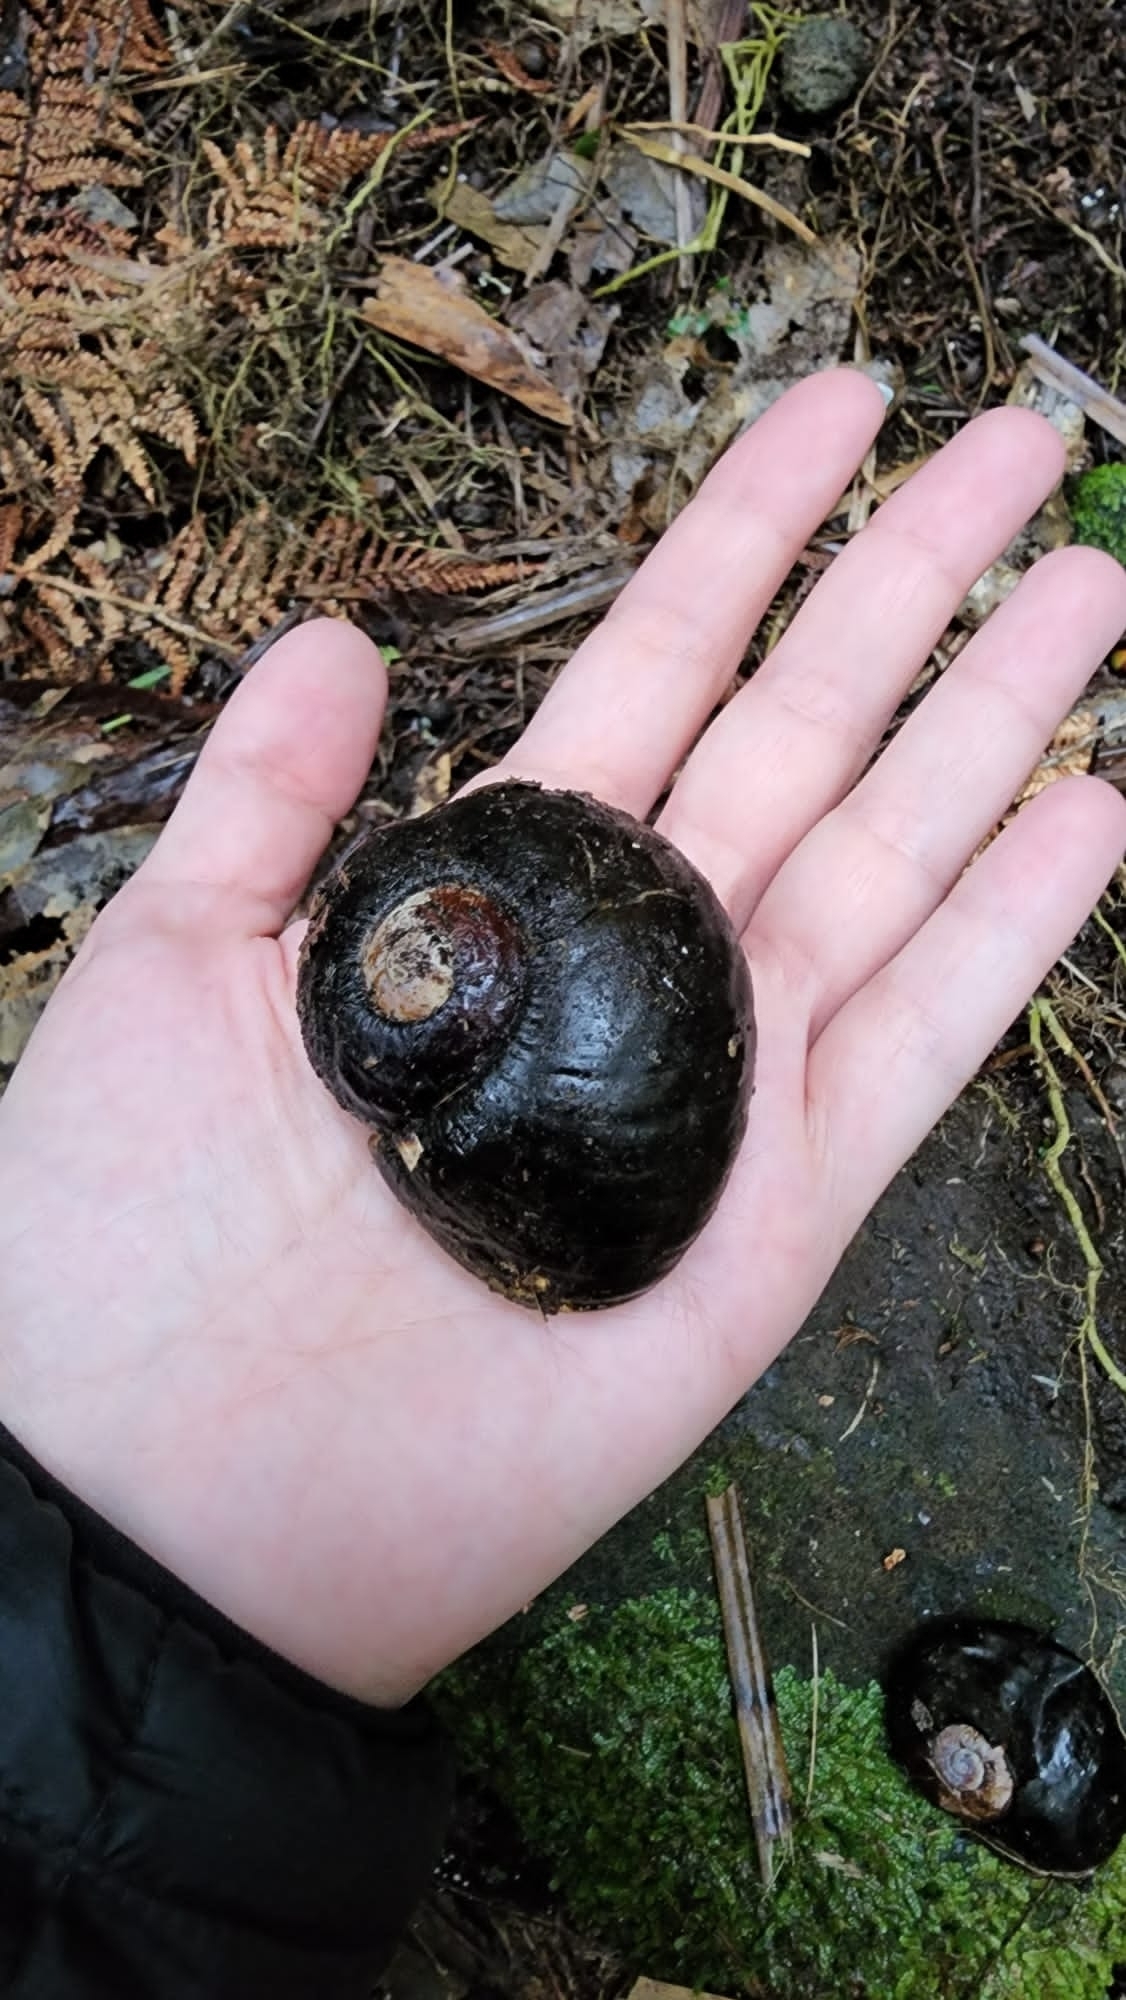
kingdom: Animalia
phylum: Mollusca
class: Gastropoda
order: Stylommatophora
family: Rhytididae
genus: Paryphanta
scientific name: Paryphanta busbyi
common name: Kauri snail
